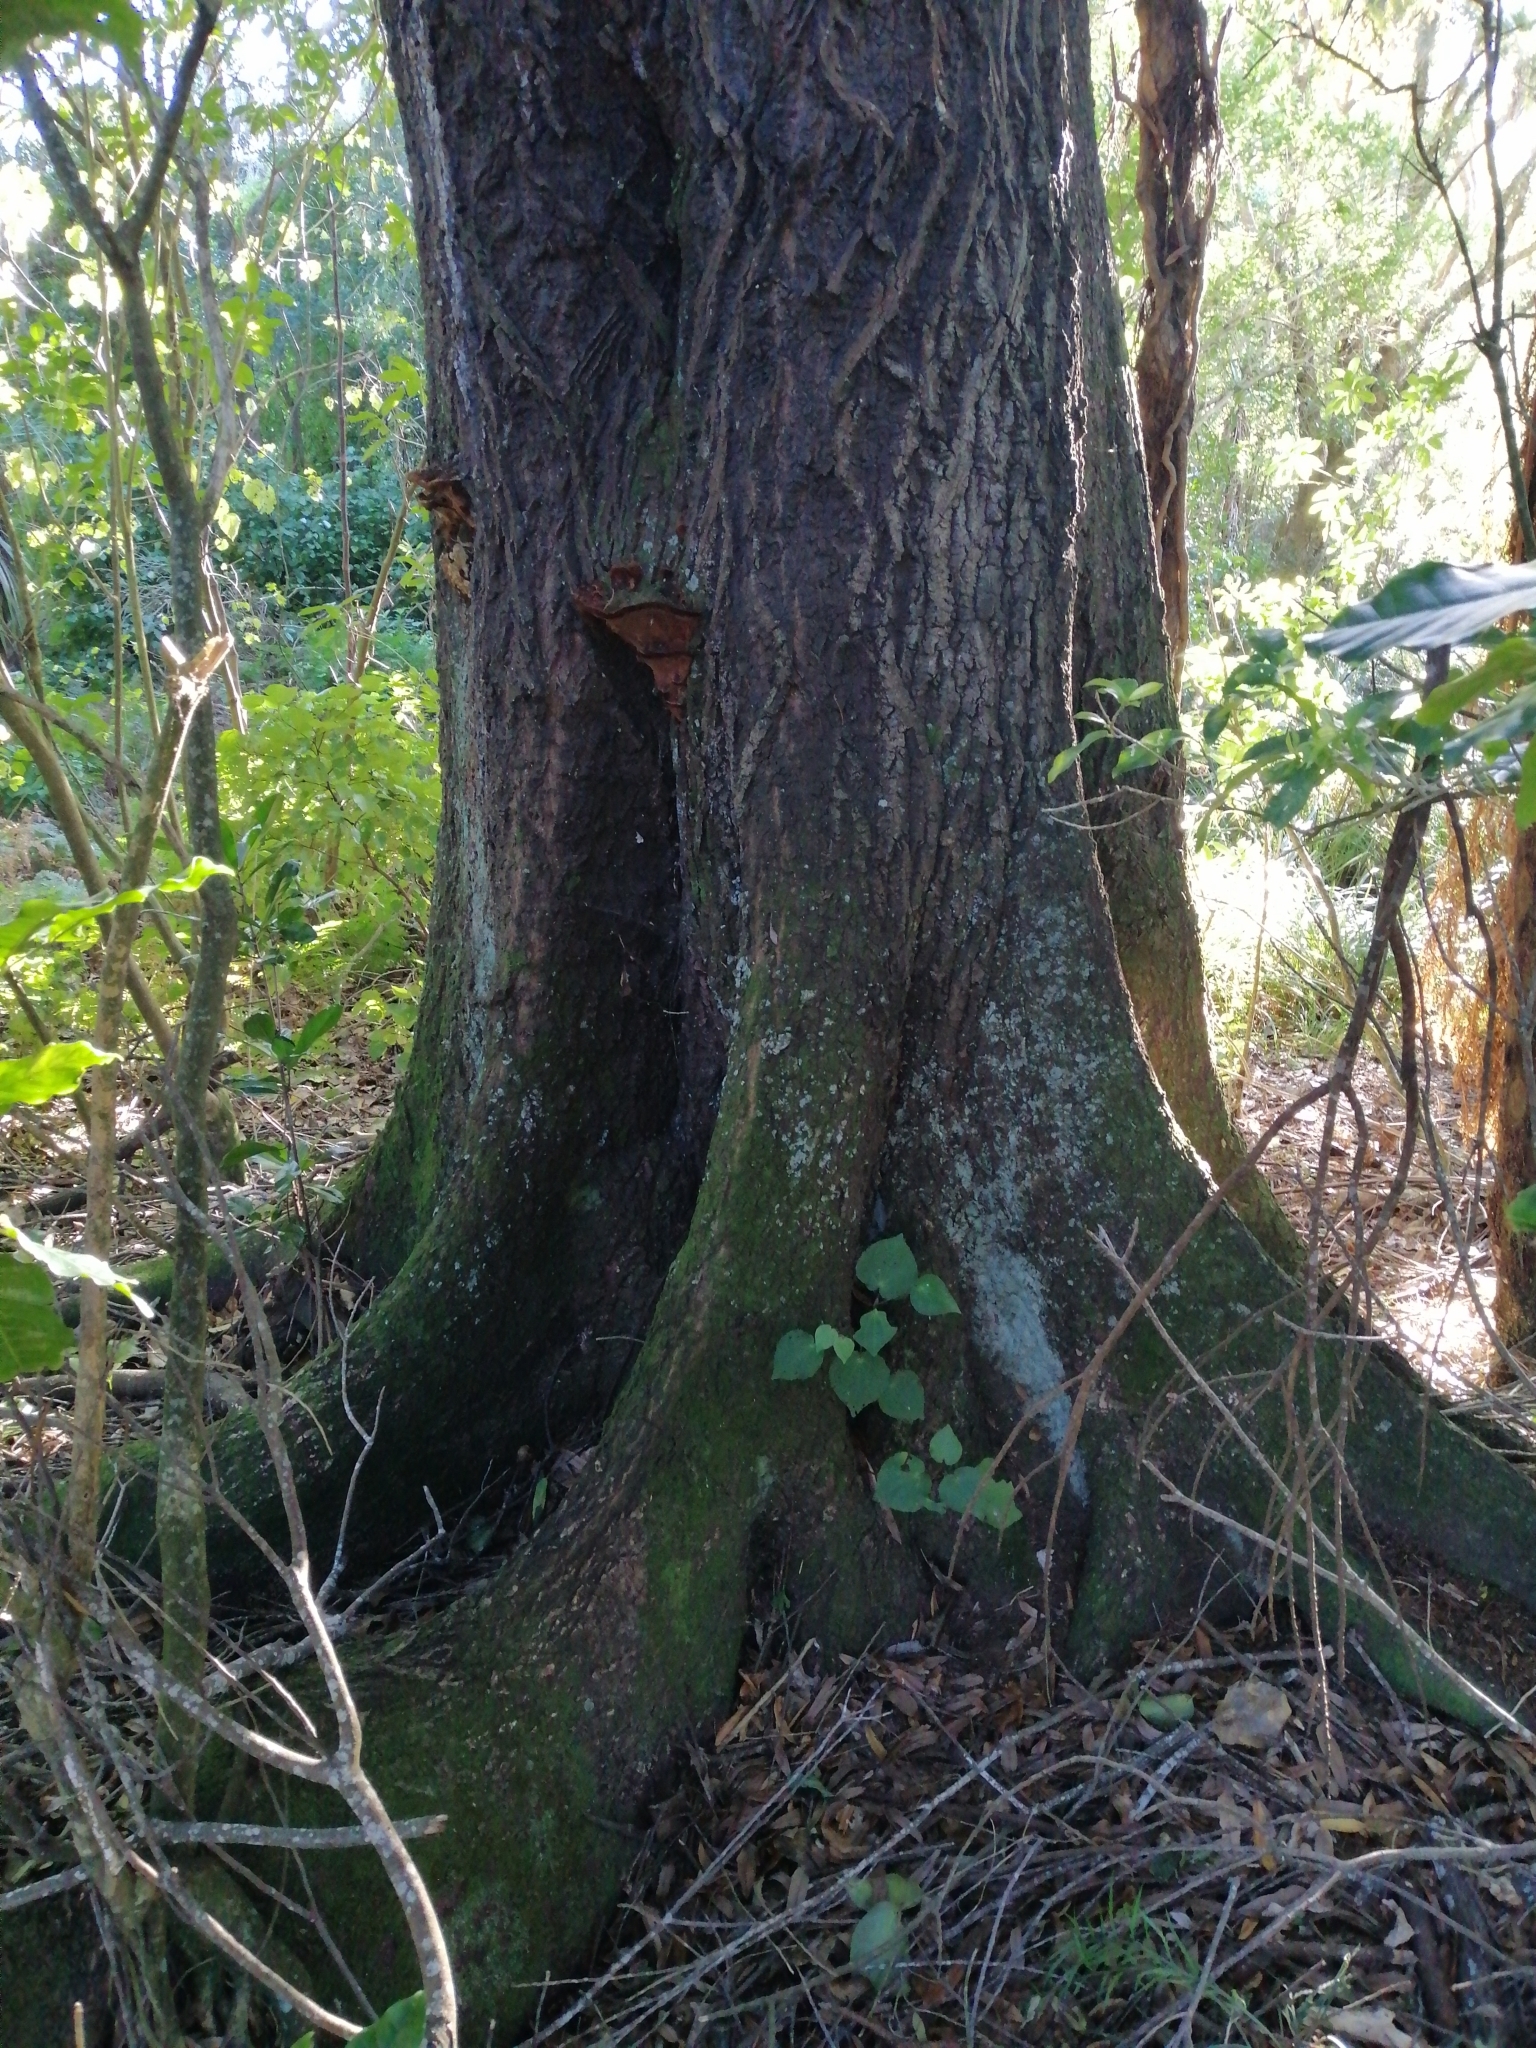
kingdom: Plantae
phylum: Tracheophyta
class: Magnoliopsida
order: Oxalidales
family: Elaeocarpaceae
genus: Elaeocarpus
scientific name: Elaeocarpus dentatus
